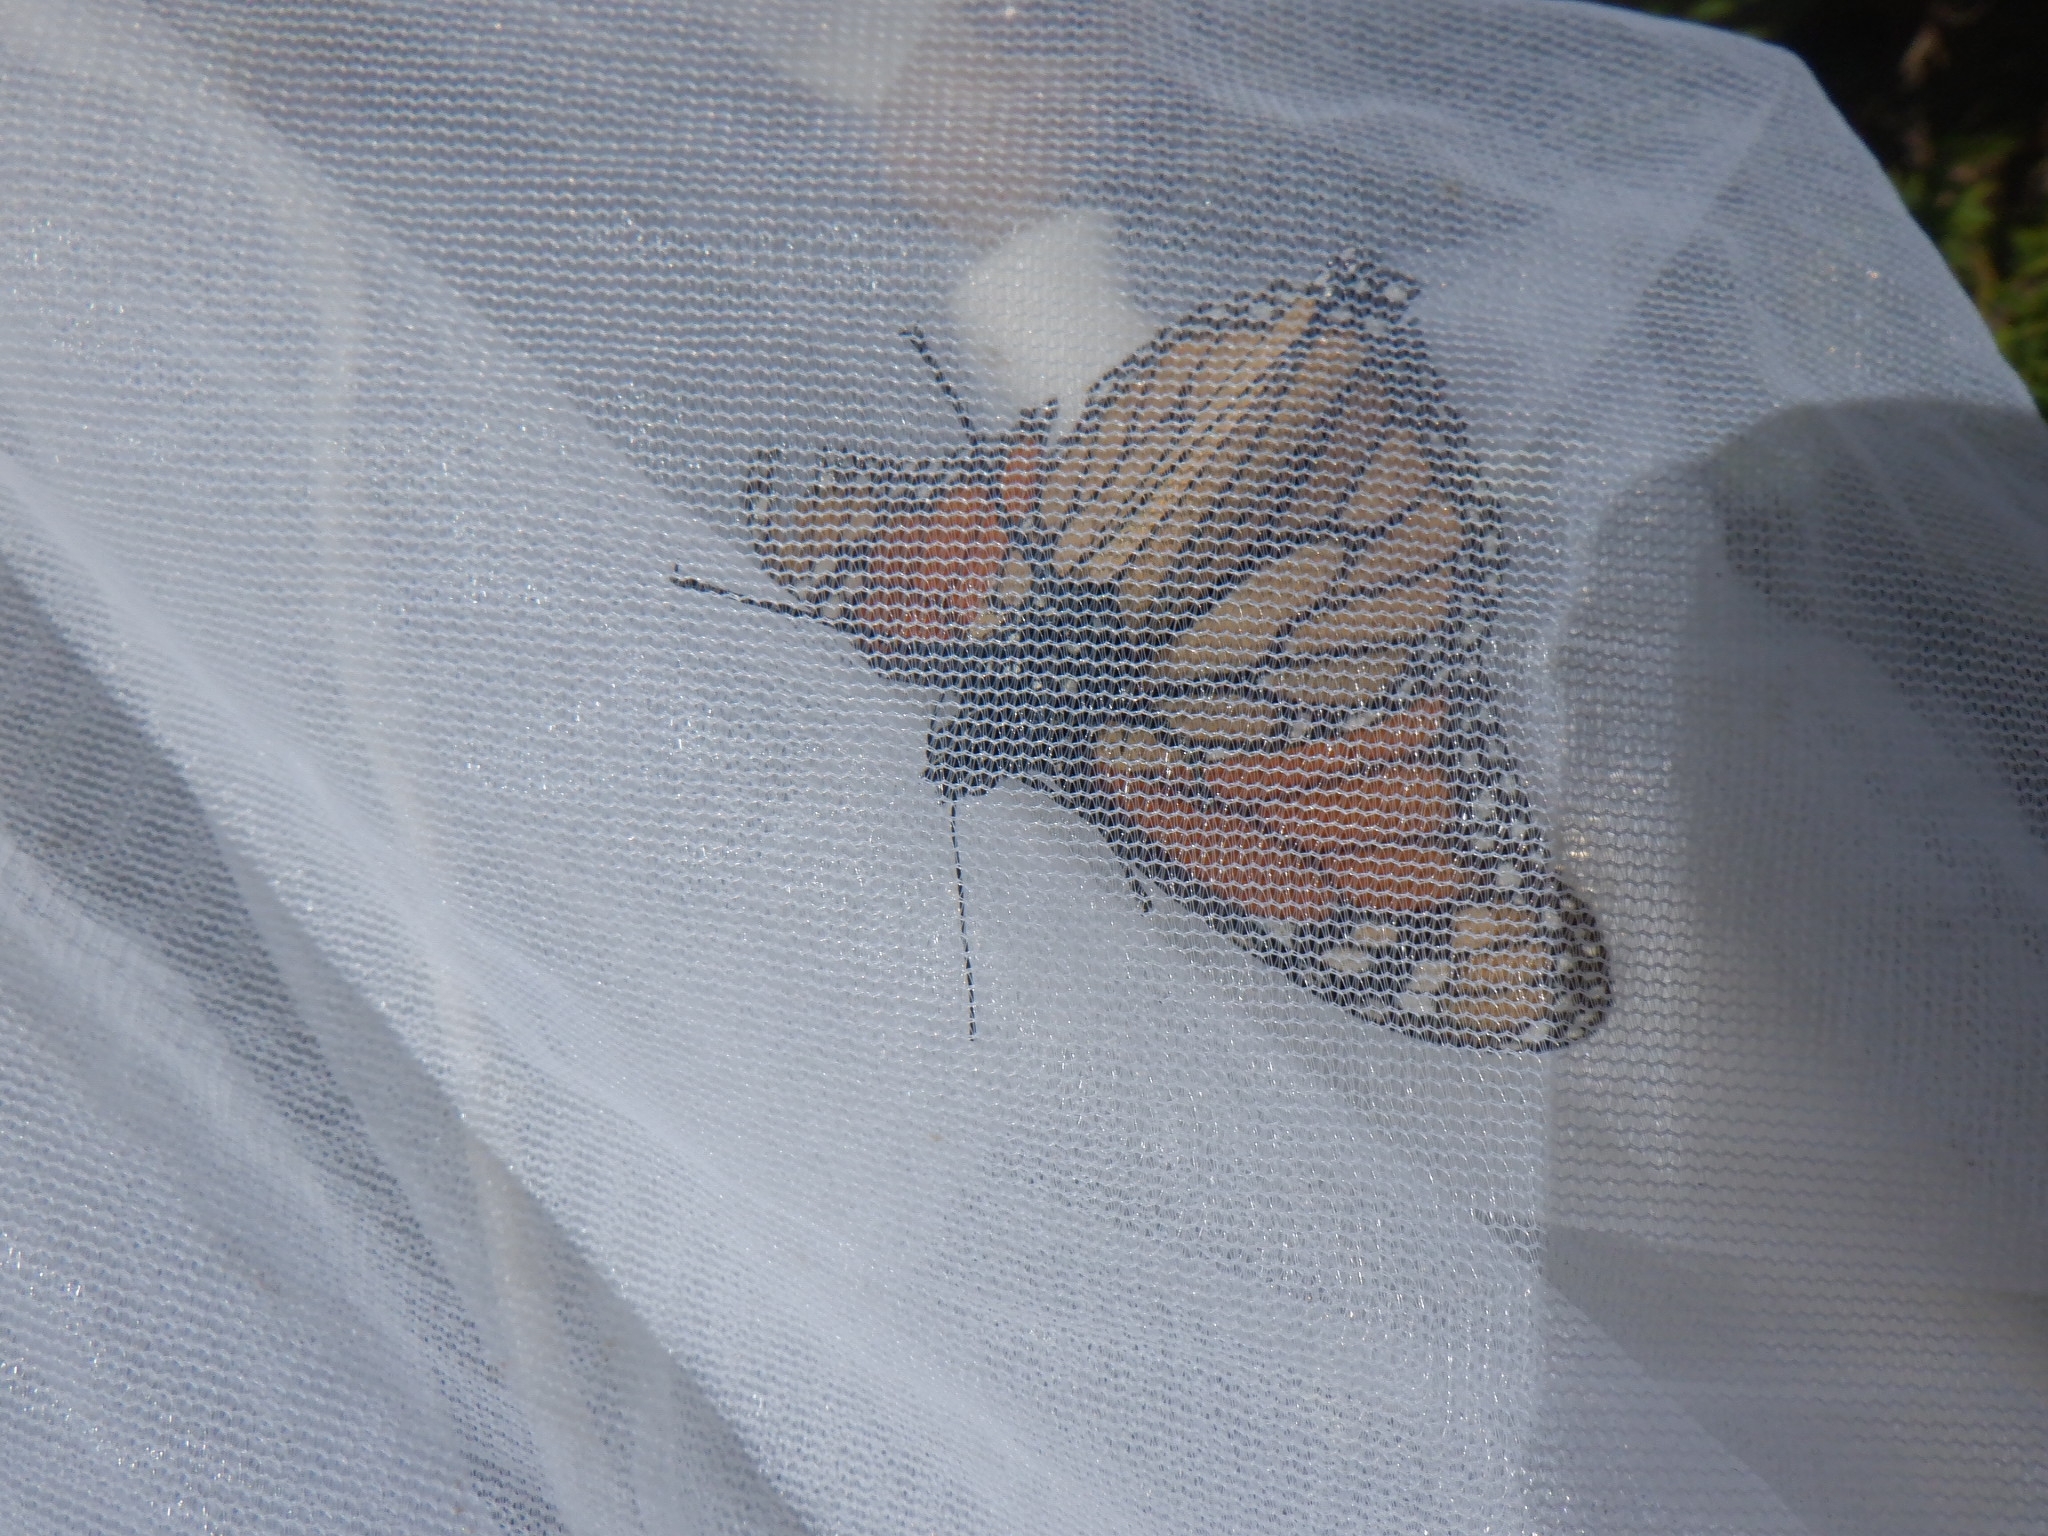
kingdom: Animalia
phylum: Arthropoda
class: Insecta
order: Lepidoptera
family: Nymphalidae
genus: Danaus
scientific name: Danaus plexippus
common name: Monarch
